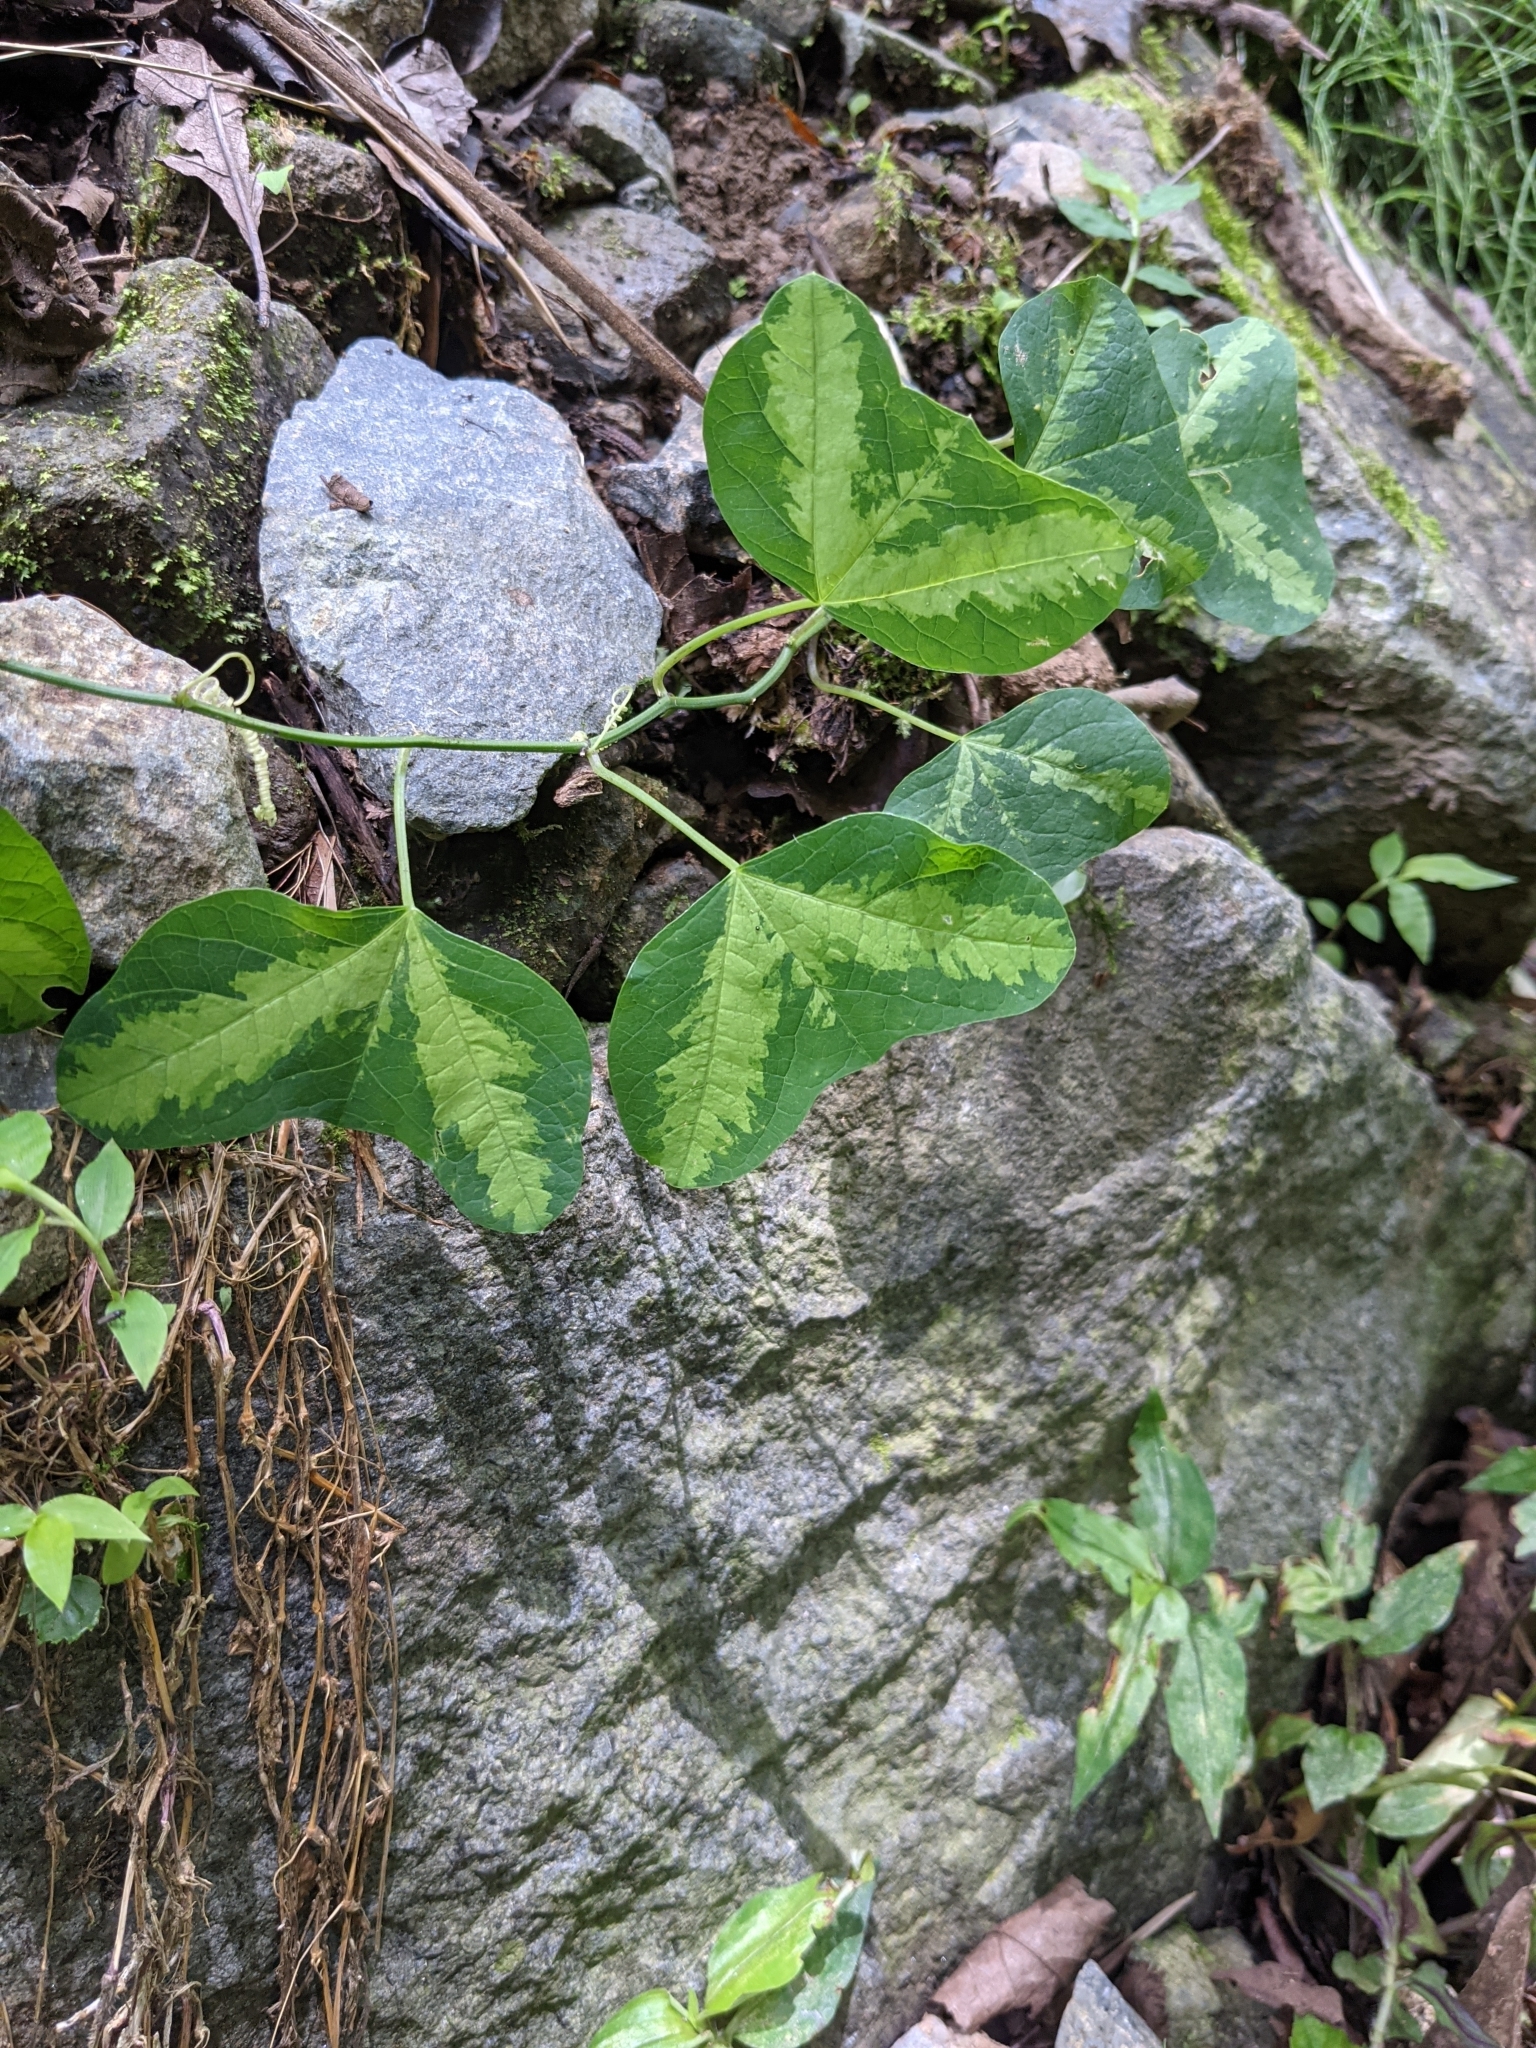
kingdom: Plantae
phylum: Tracheophyta
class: Magnoliopsida
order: Malpighiales
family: Passifloraceae
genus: Passiflora
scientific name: Passiflora apetala
